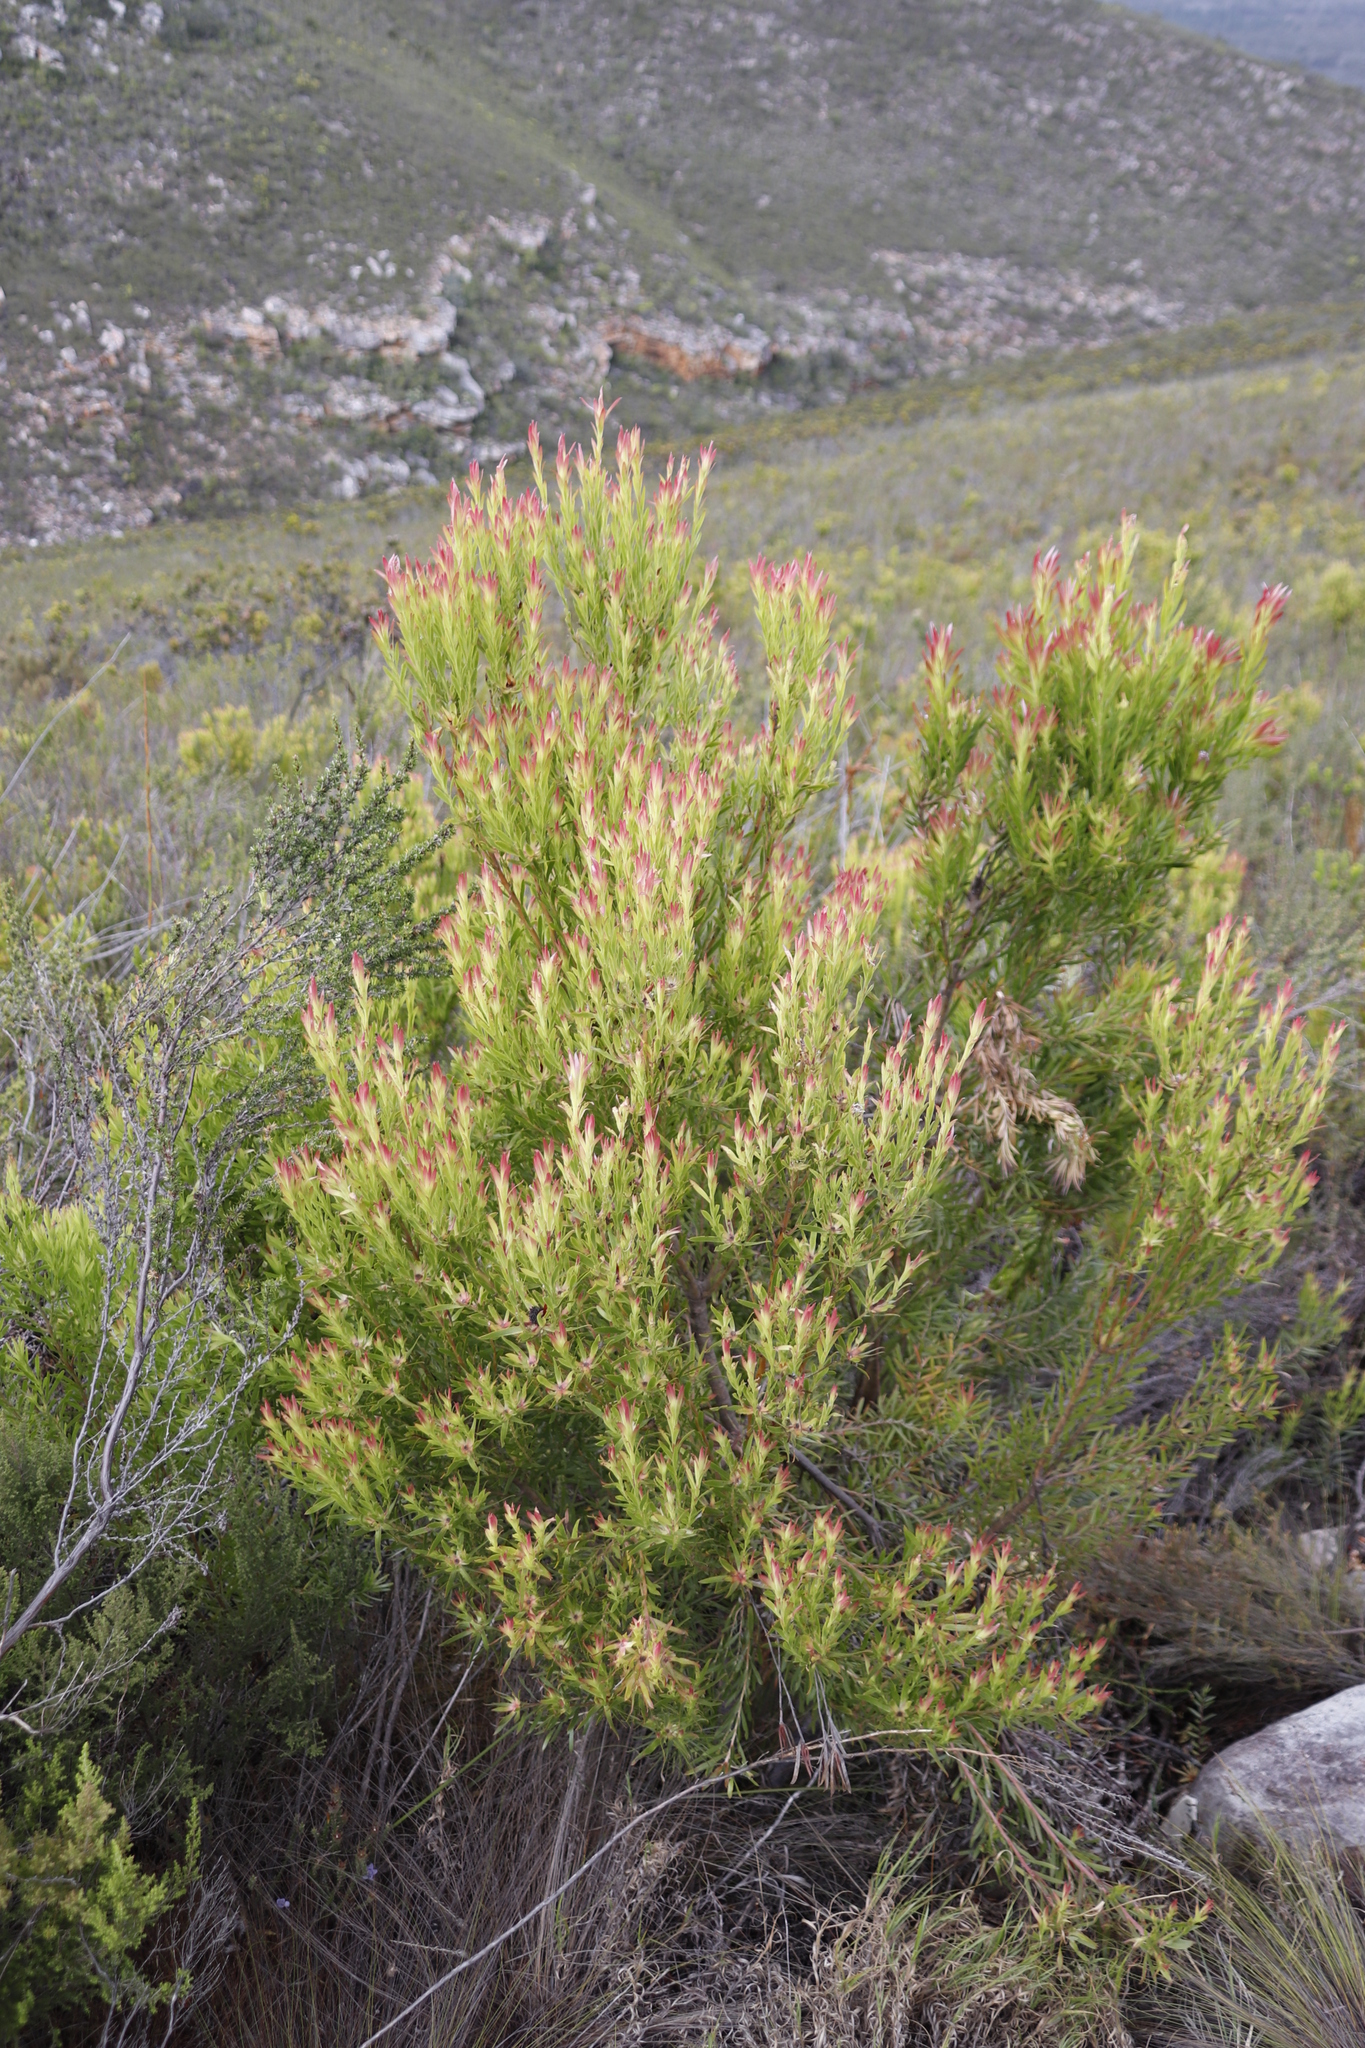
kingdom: Plantae
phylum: Tracheophyta
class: Magnoliopsida
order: Proteales
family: Proteaceae
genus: Leucadendron
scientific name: Leucadendron xanthoconus
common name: Sickle-leaf conebush
